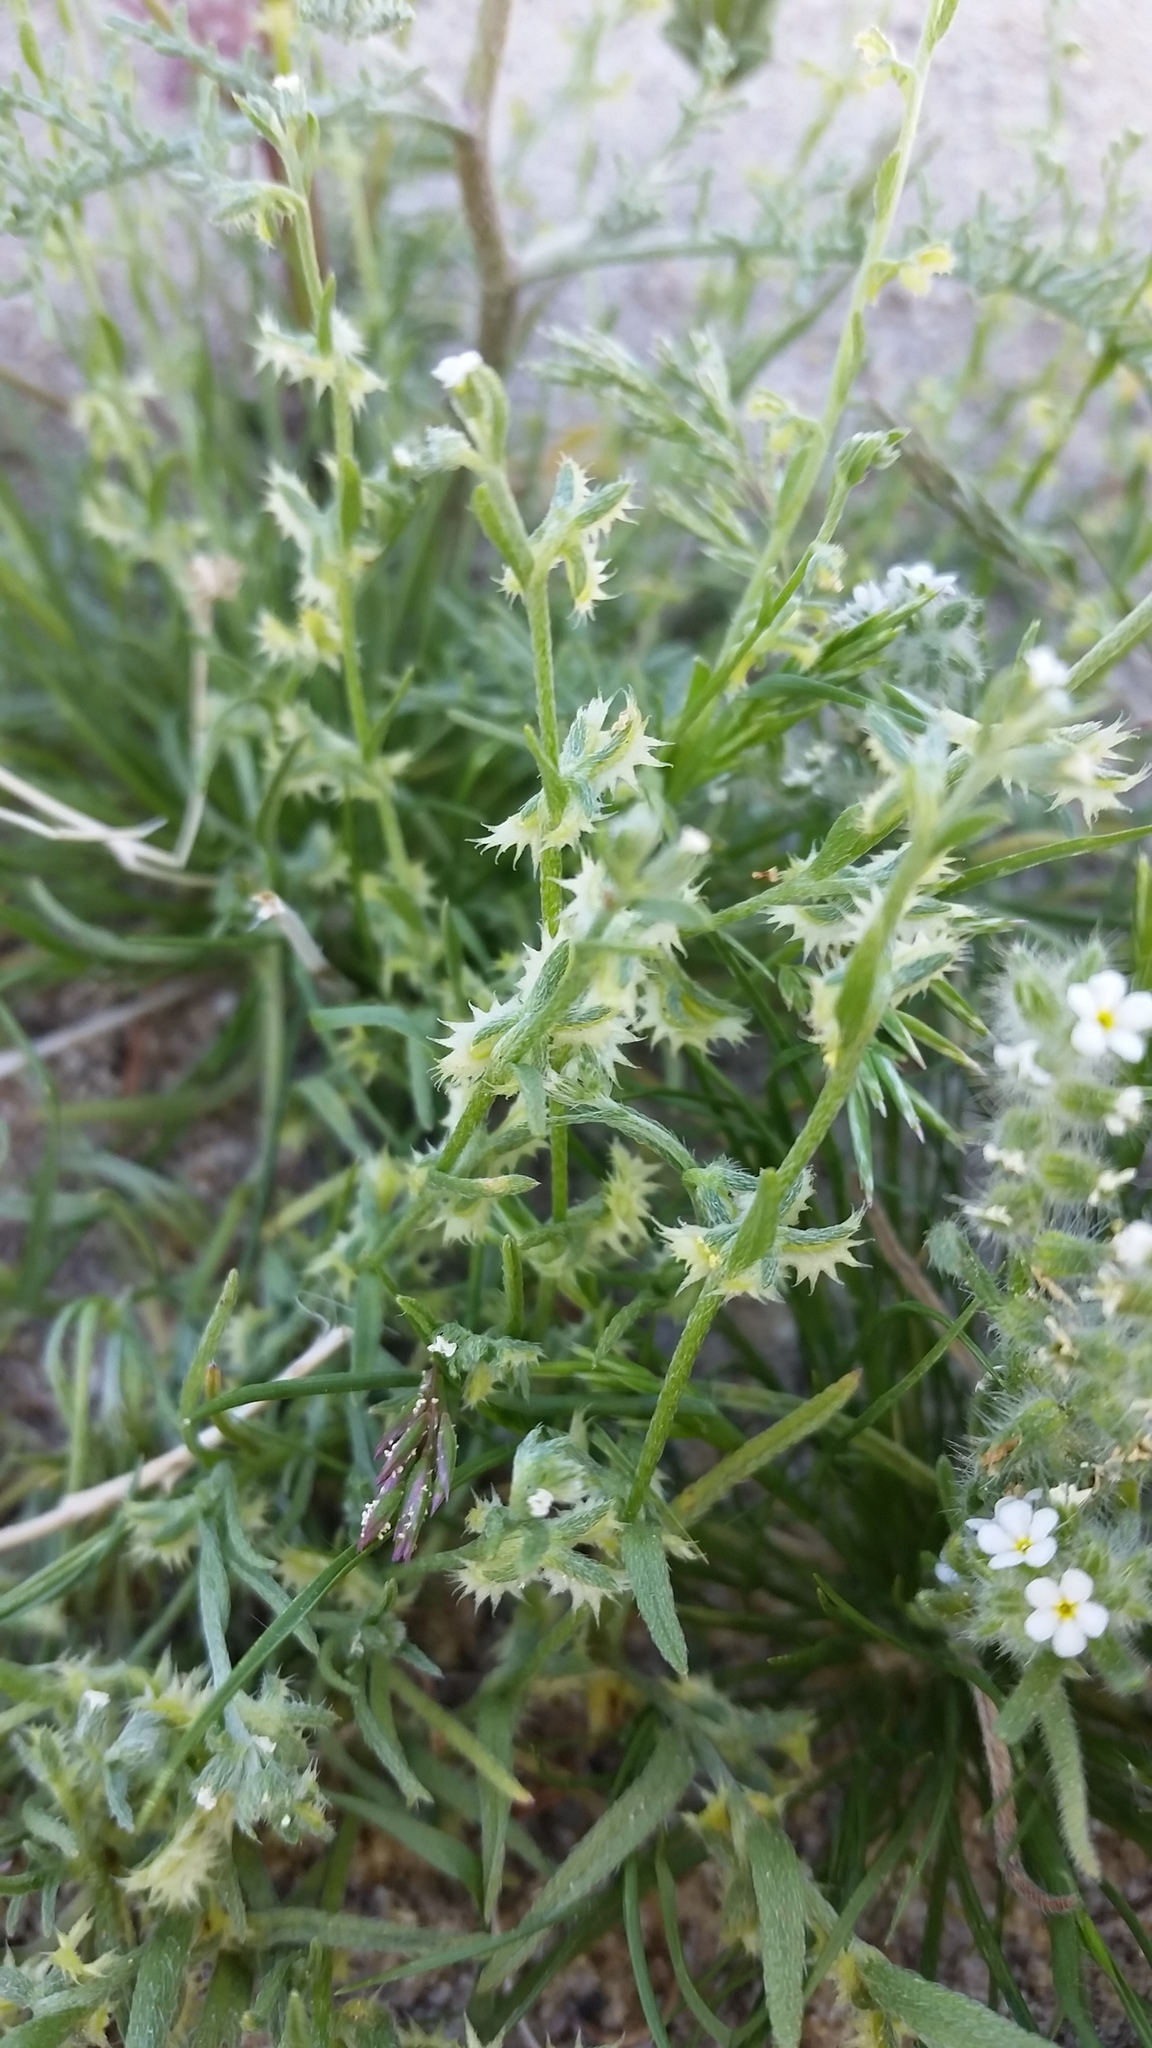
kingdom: Plantae
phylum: Tracheophyta
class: Magnoliopsida
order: Boraginales
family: Boraginaceae
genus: Pectocarya
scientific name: Pectocarya platycarpa
